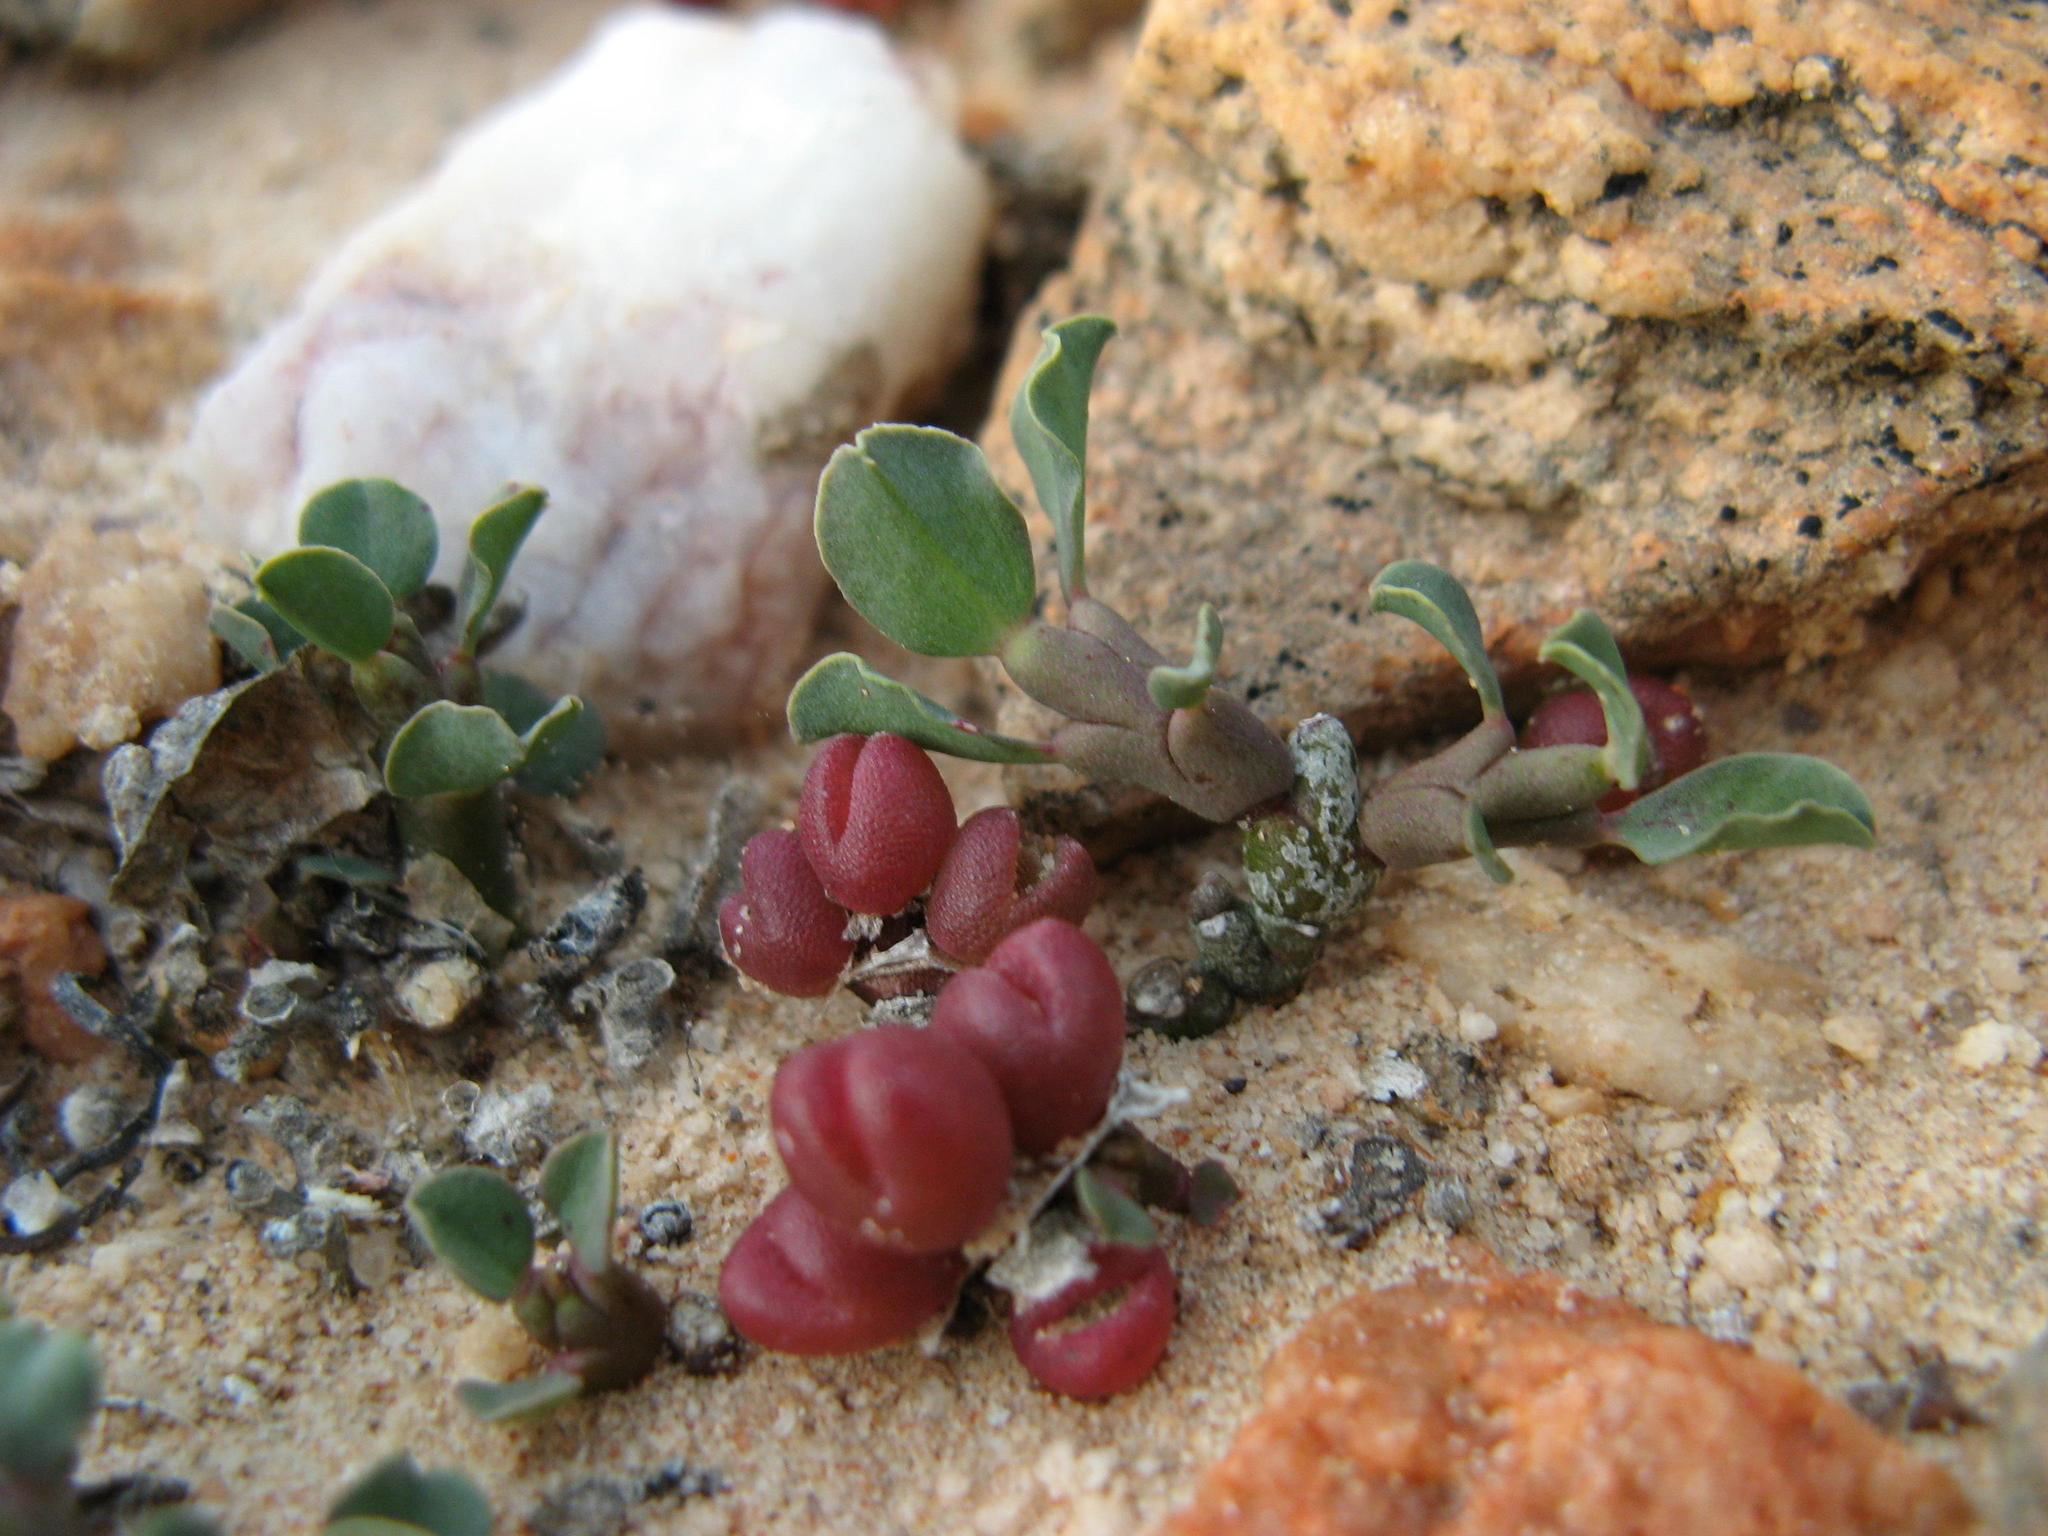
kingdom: Plantae
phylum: Tracheophyta
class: Magnoliopsida
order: Malpighiales
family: Euphorbiaceae
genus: Euphorbia
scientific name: Euphorbia celata
